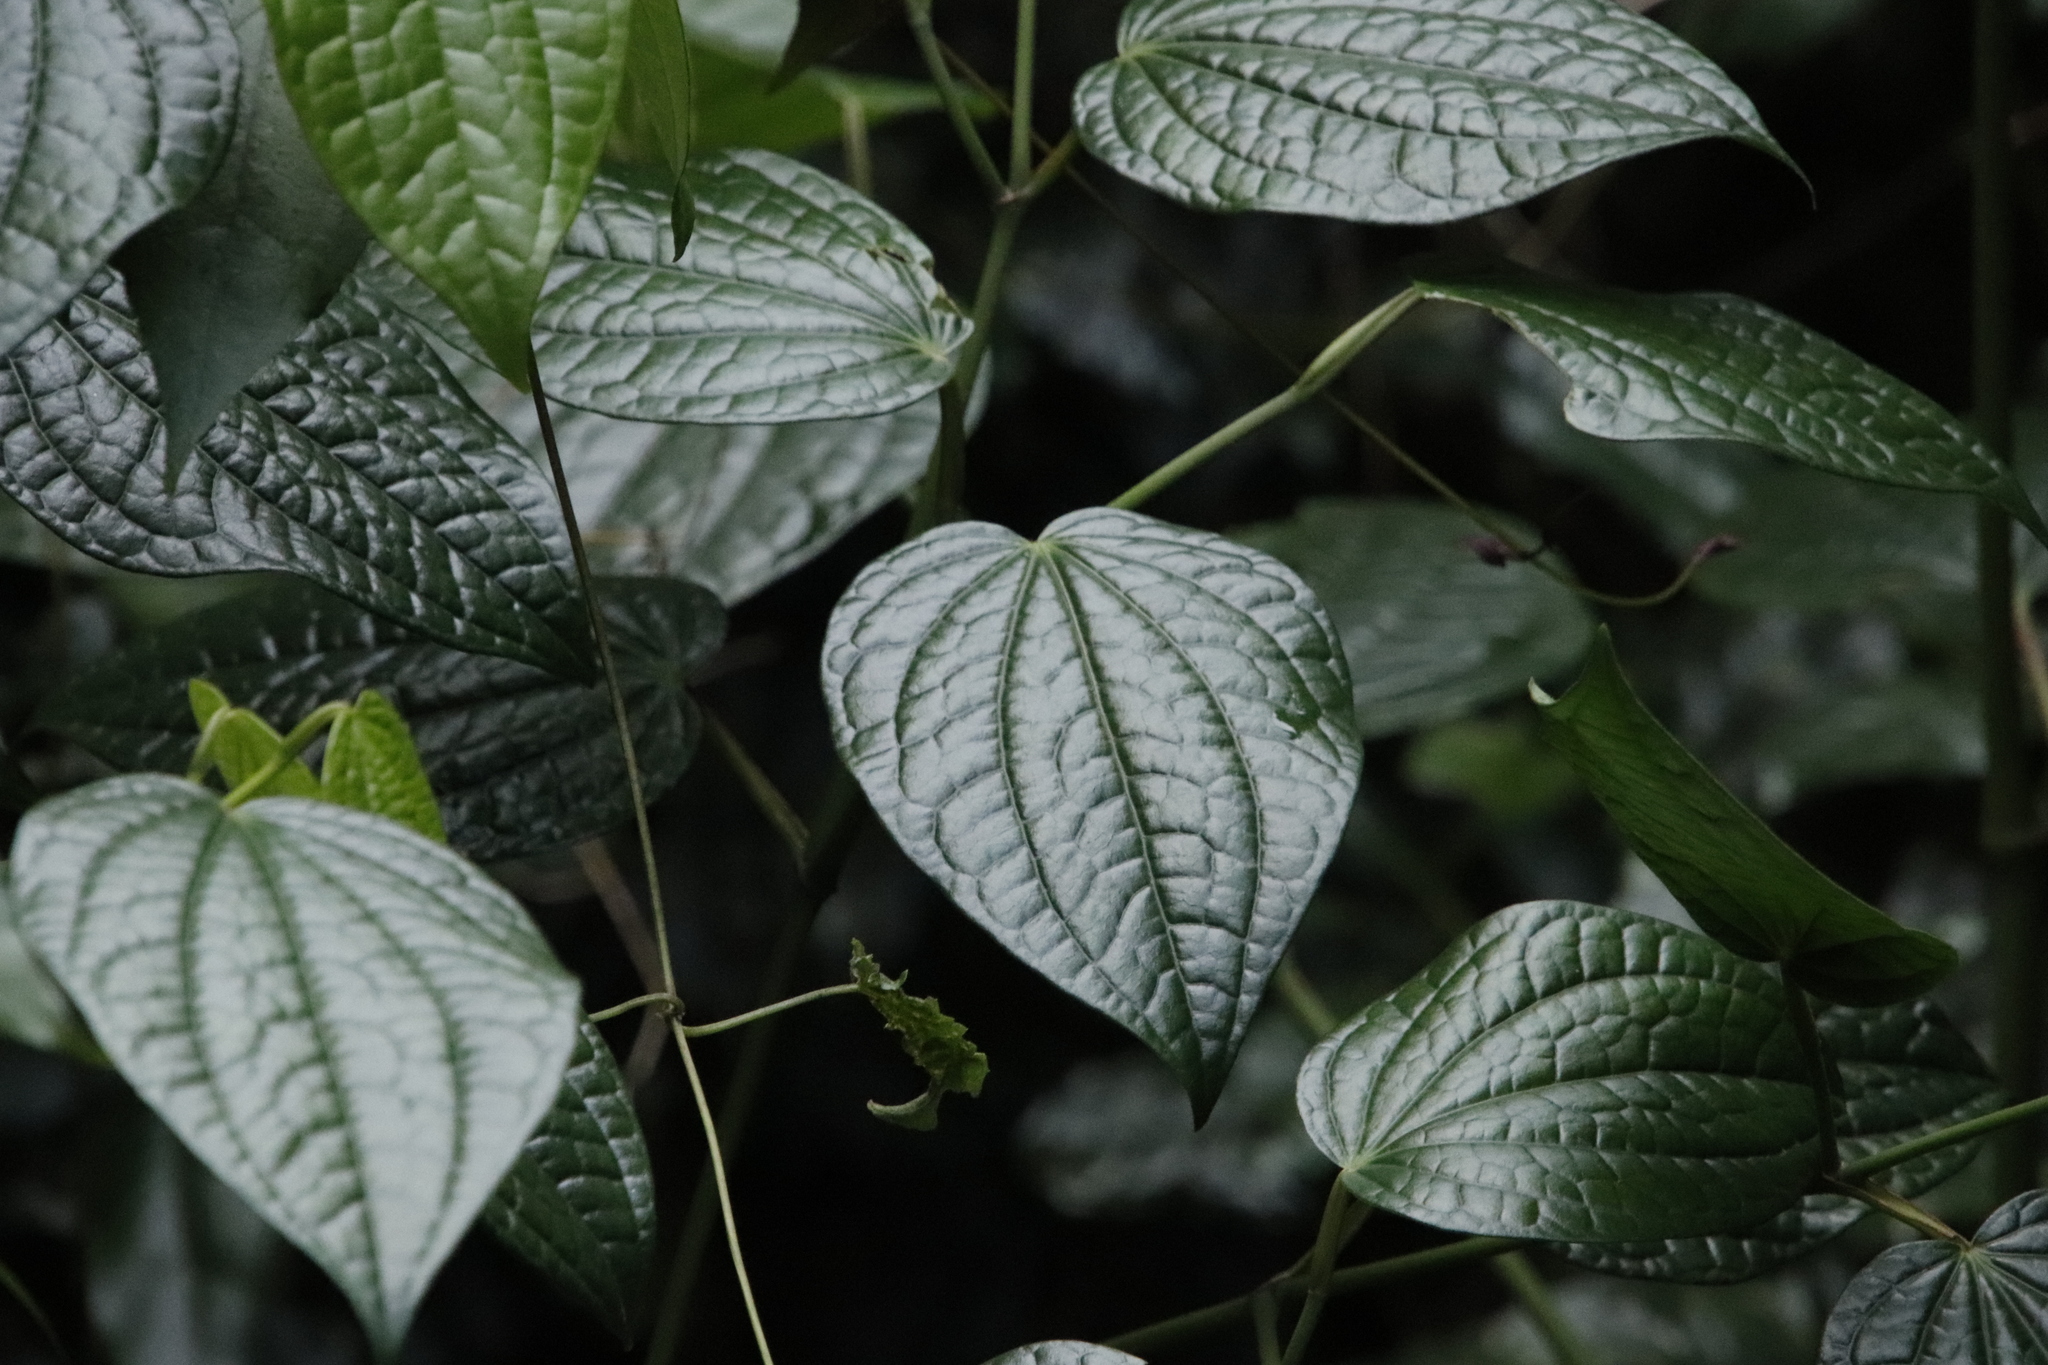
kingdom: Plantae
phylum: Tracheophyta
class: Magnoliopsida
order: Piperales
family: Piperaceae
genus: Piper
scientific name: Piper capense
